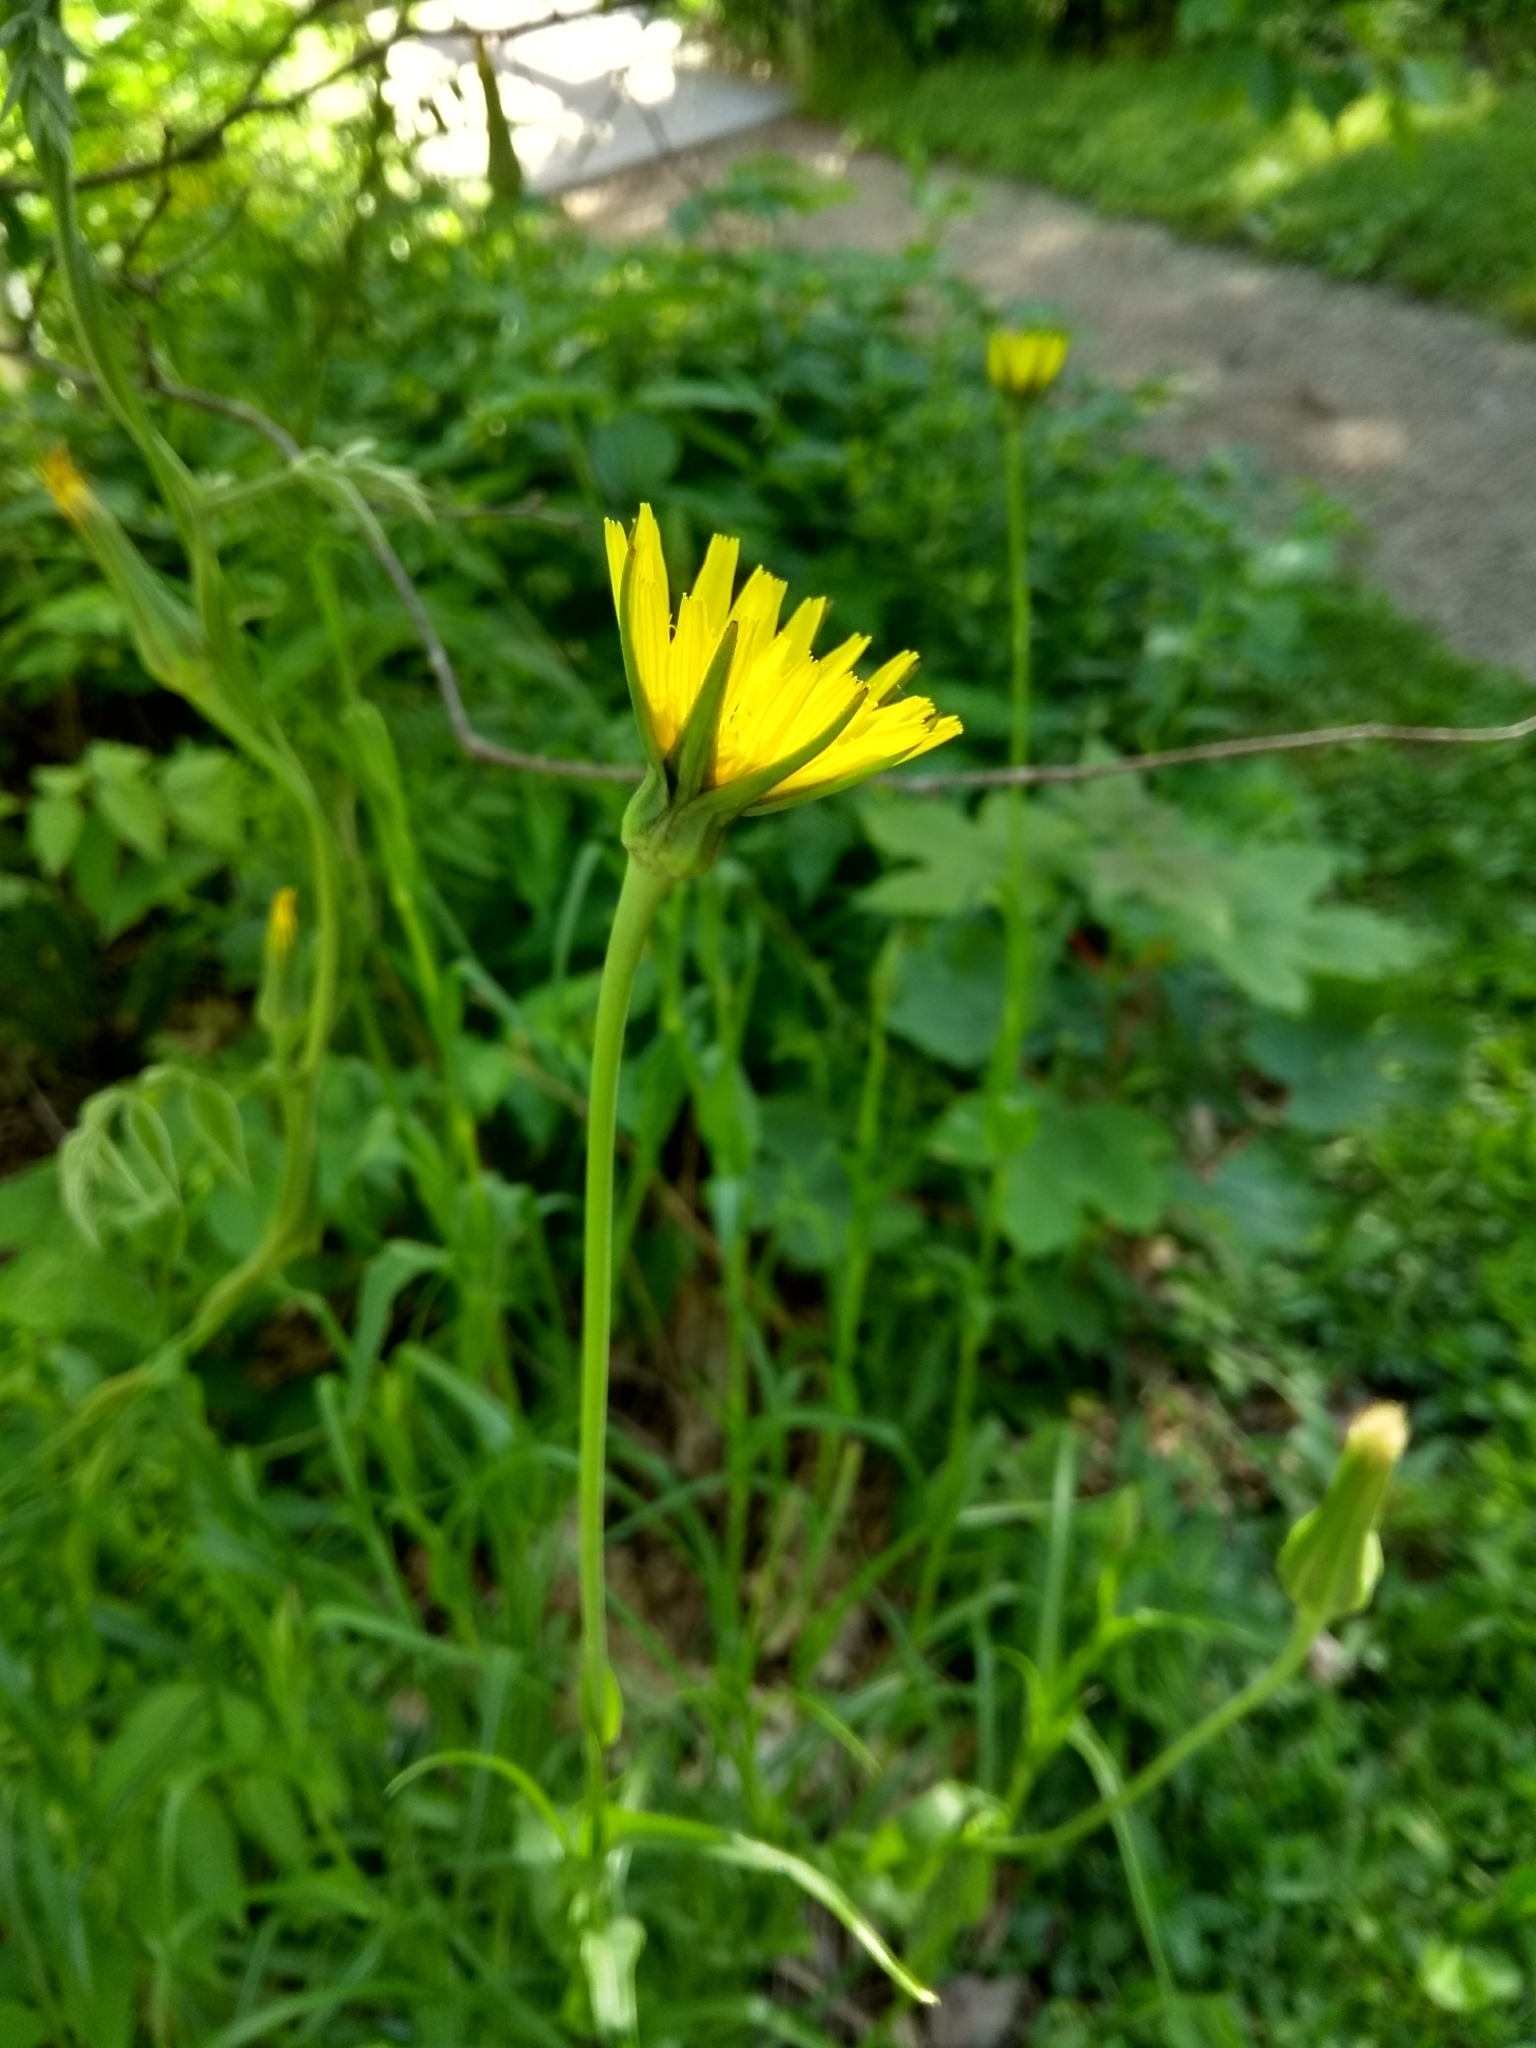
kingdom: Plantae
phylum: Tracheophyta
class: Magnoliopsida
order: Asterales
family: Asteraceae
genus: Tragopogon
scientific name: Tragopogon pratensis
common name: Goat's-beard
